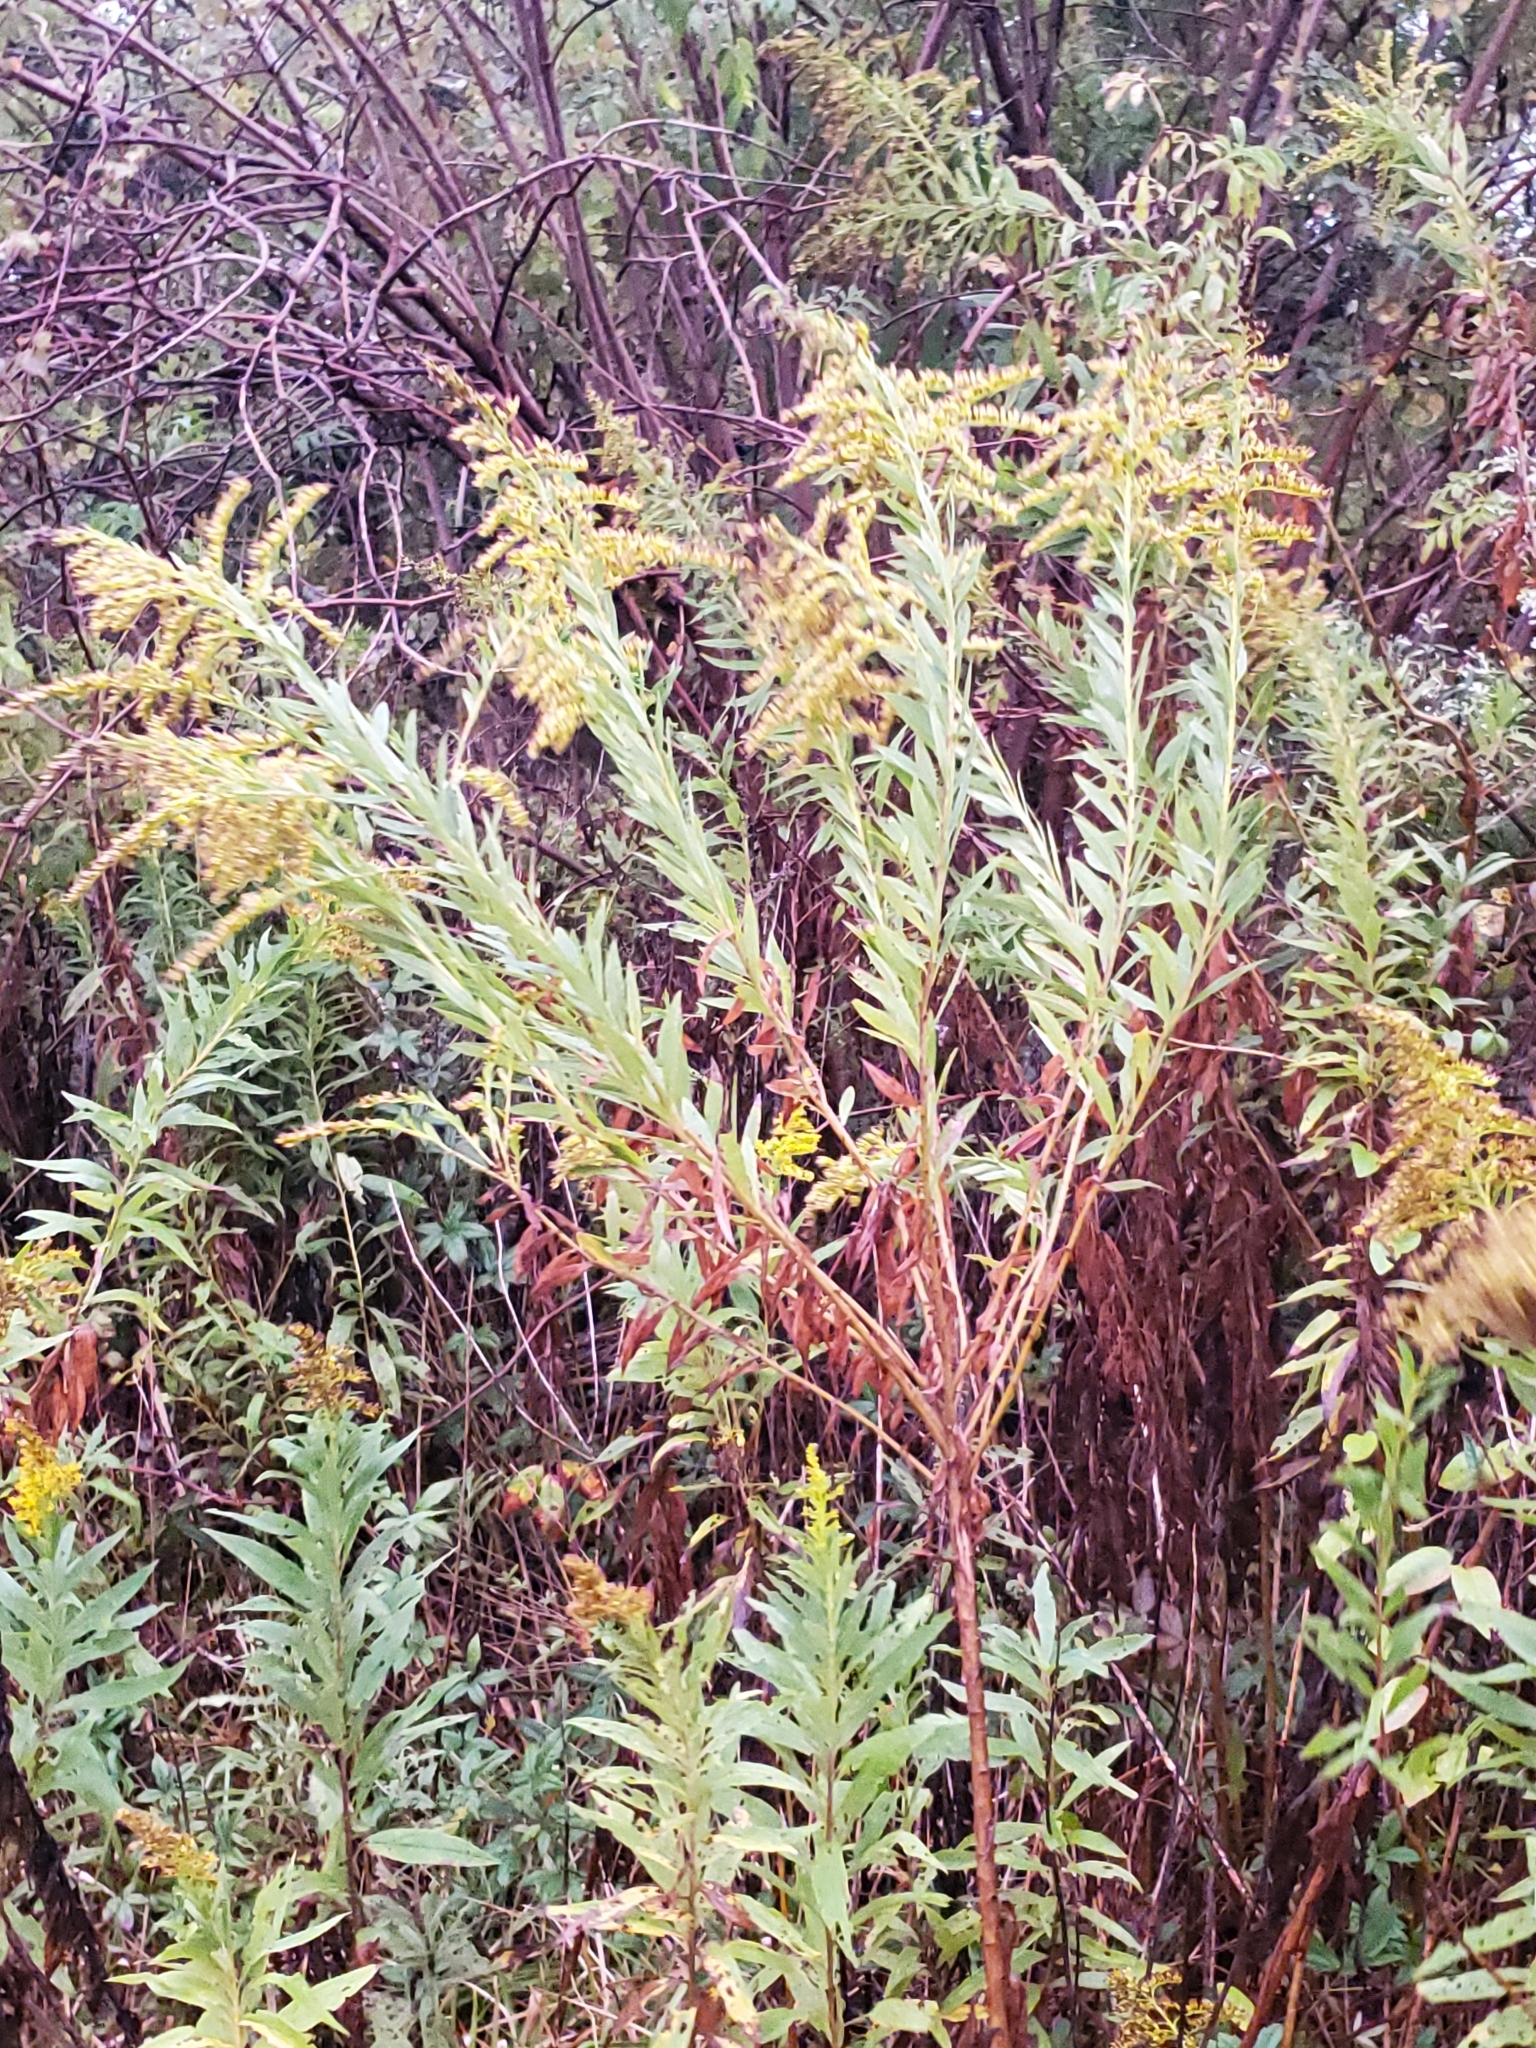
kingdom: Plantae
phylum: Tracheophyta
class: Magnoliopsida
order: Asterales
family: Asteraceae
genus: Solidago
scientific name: Solidago altissima
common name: Late goldenrod
